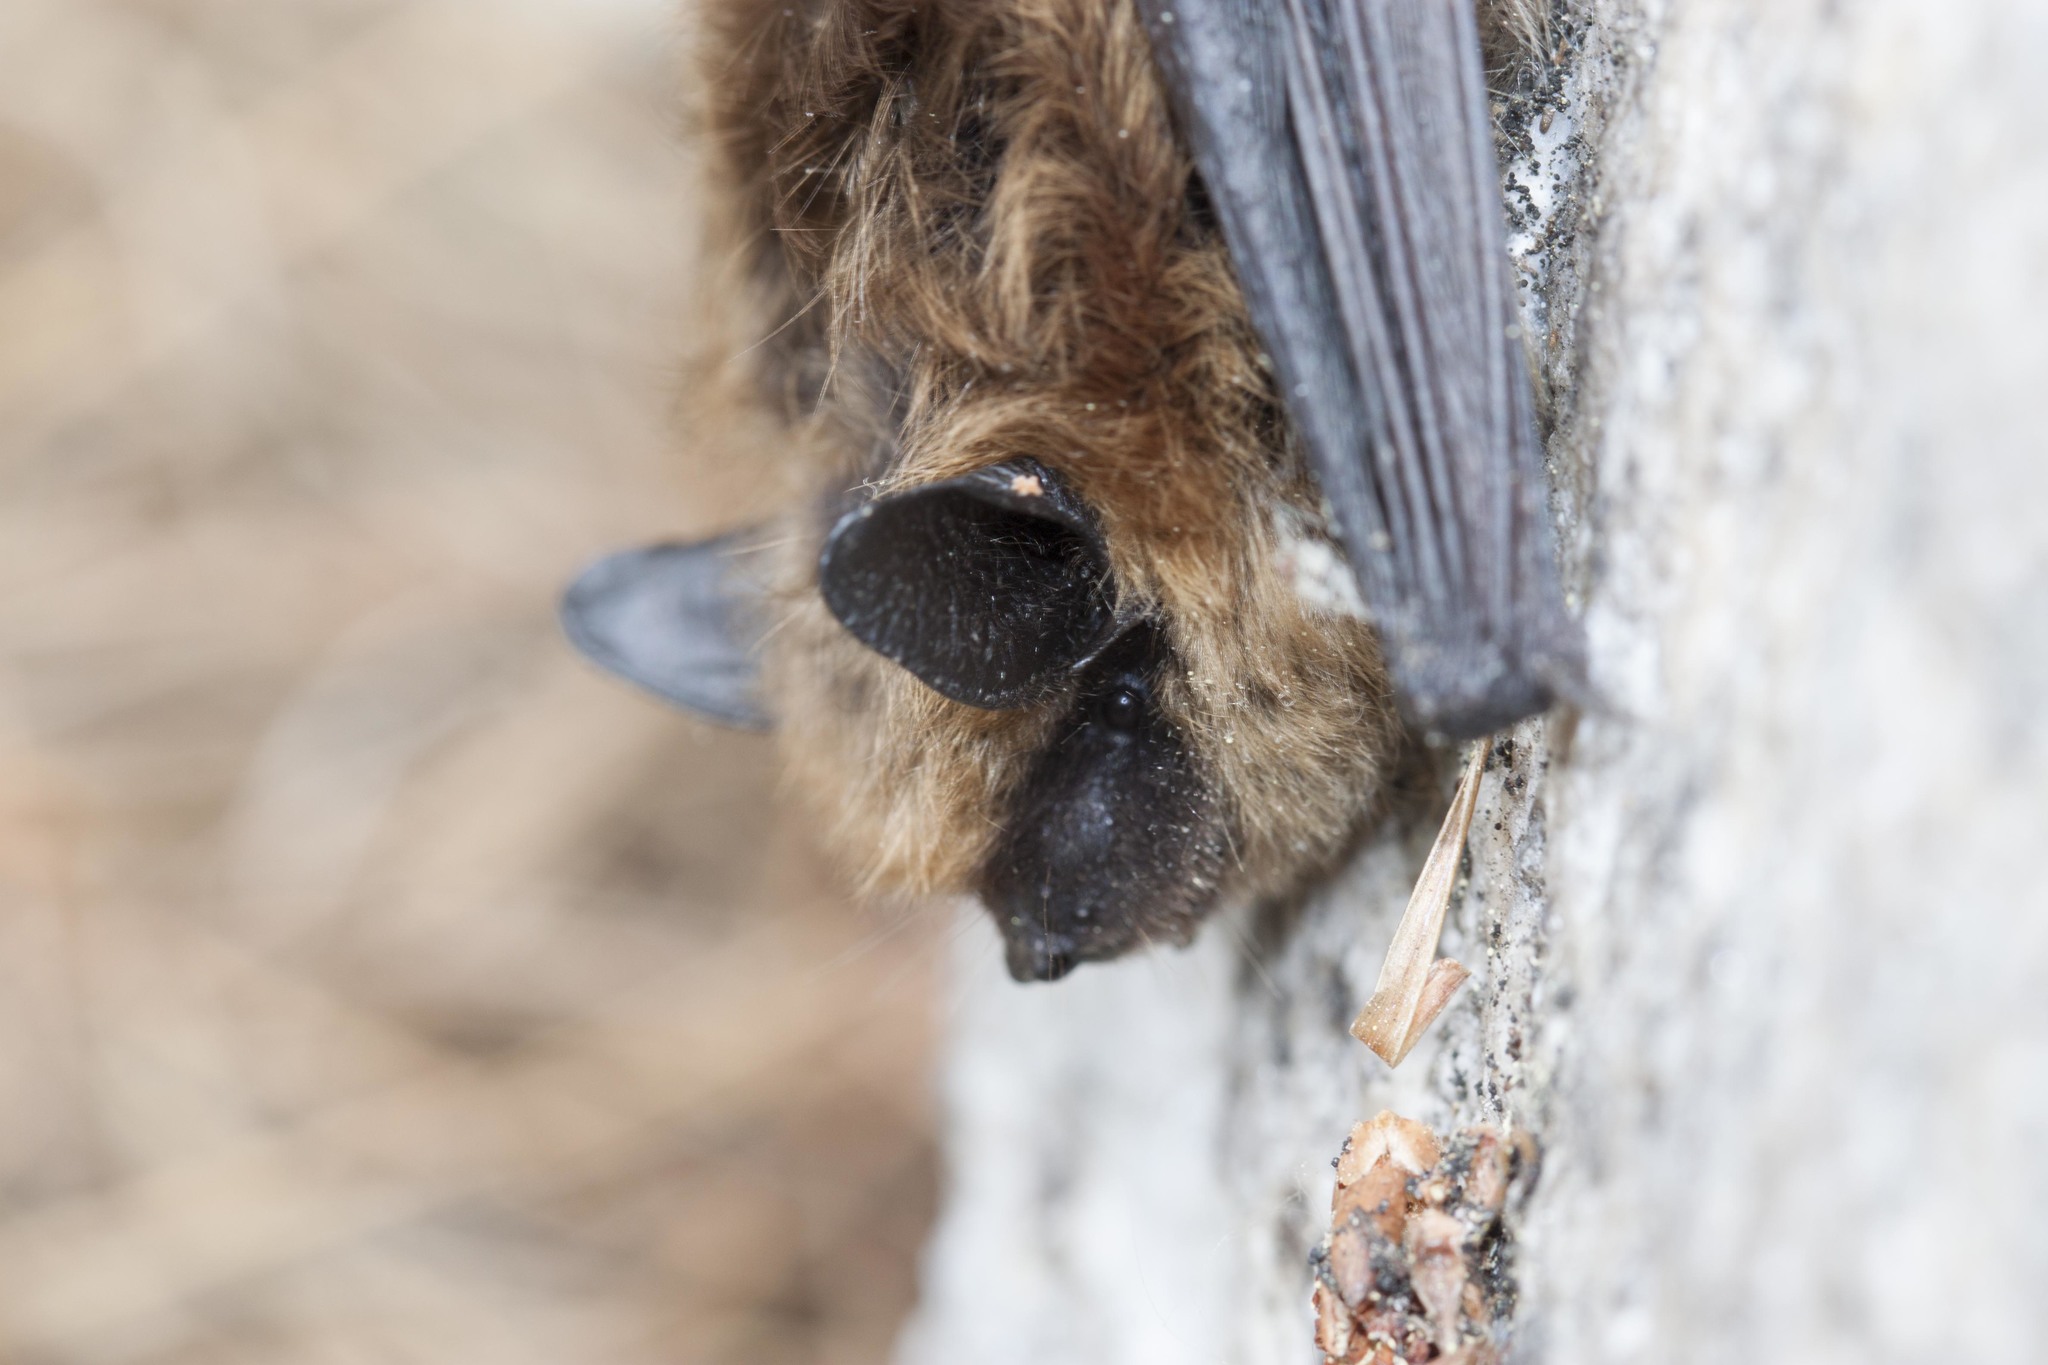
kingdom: Animalia
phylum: Chordata
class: Mammalia
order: Chiroptera
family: Vespertilionidae
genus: Myotis
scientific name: Myotis leibii
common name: Eastern small-footed myotis
